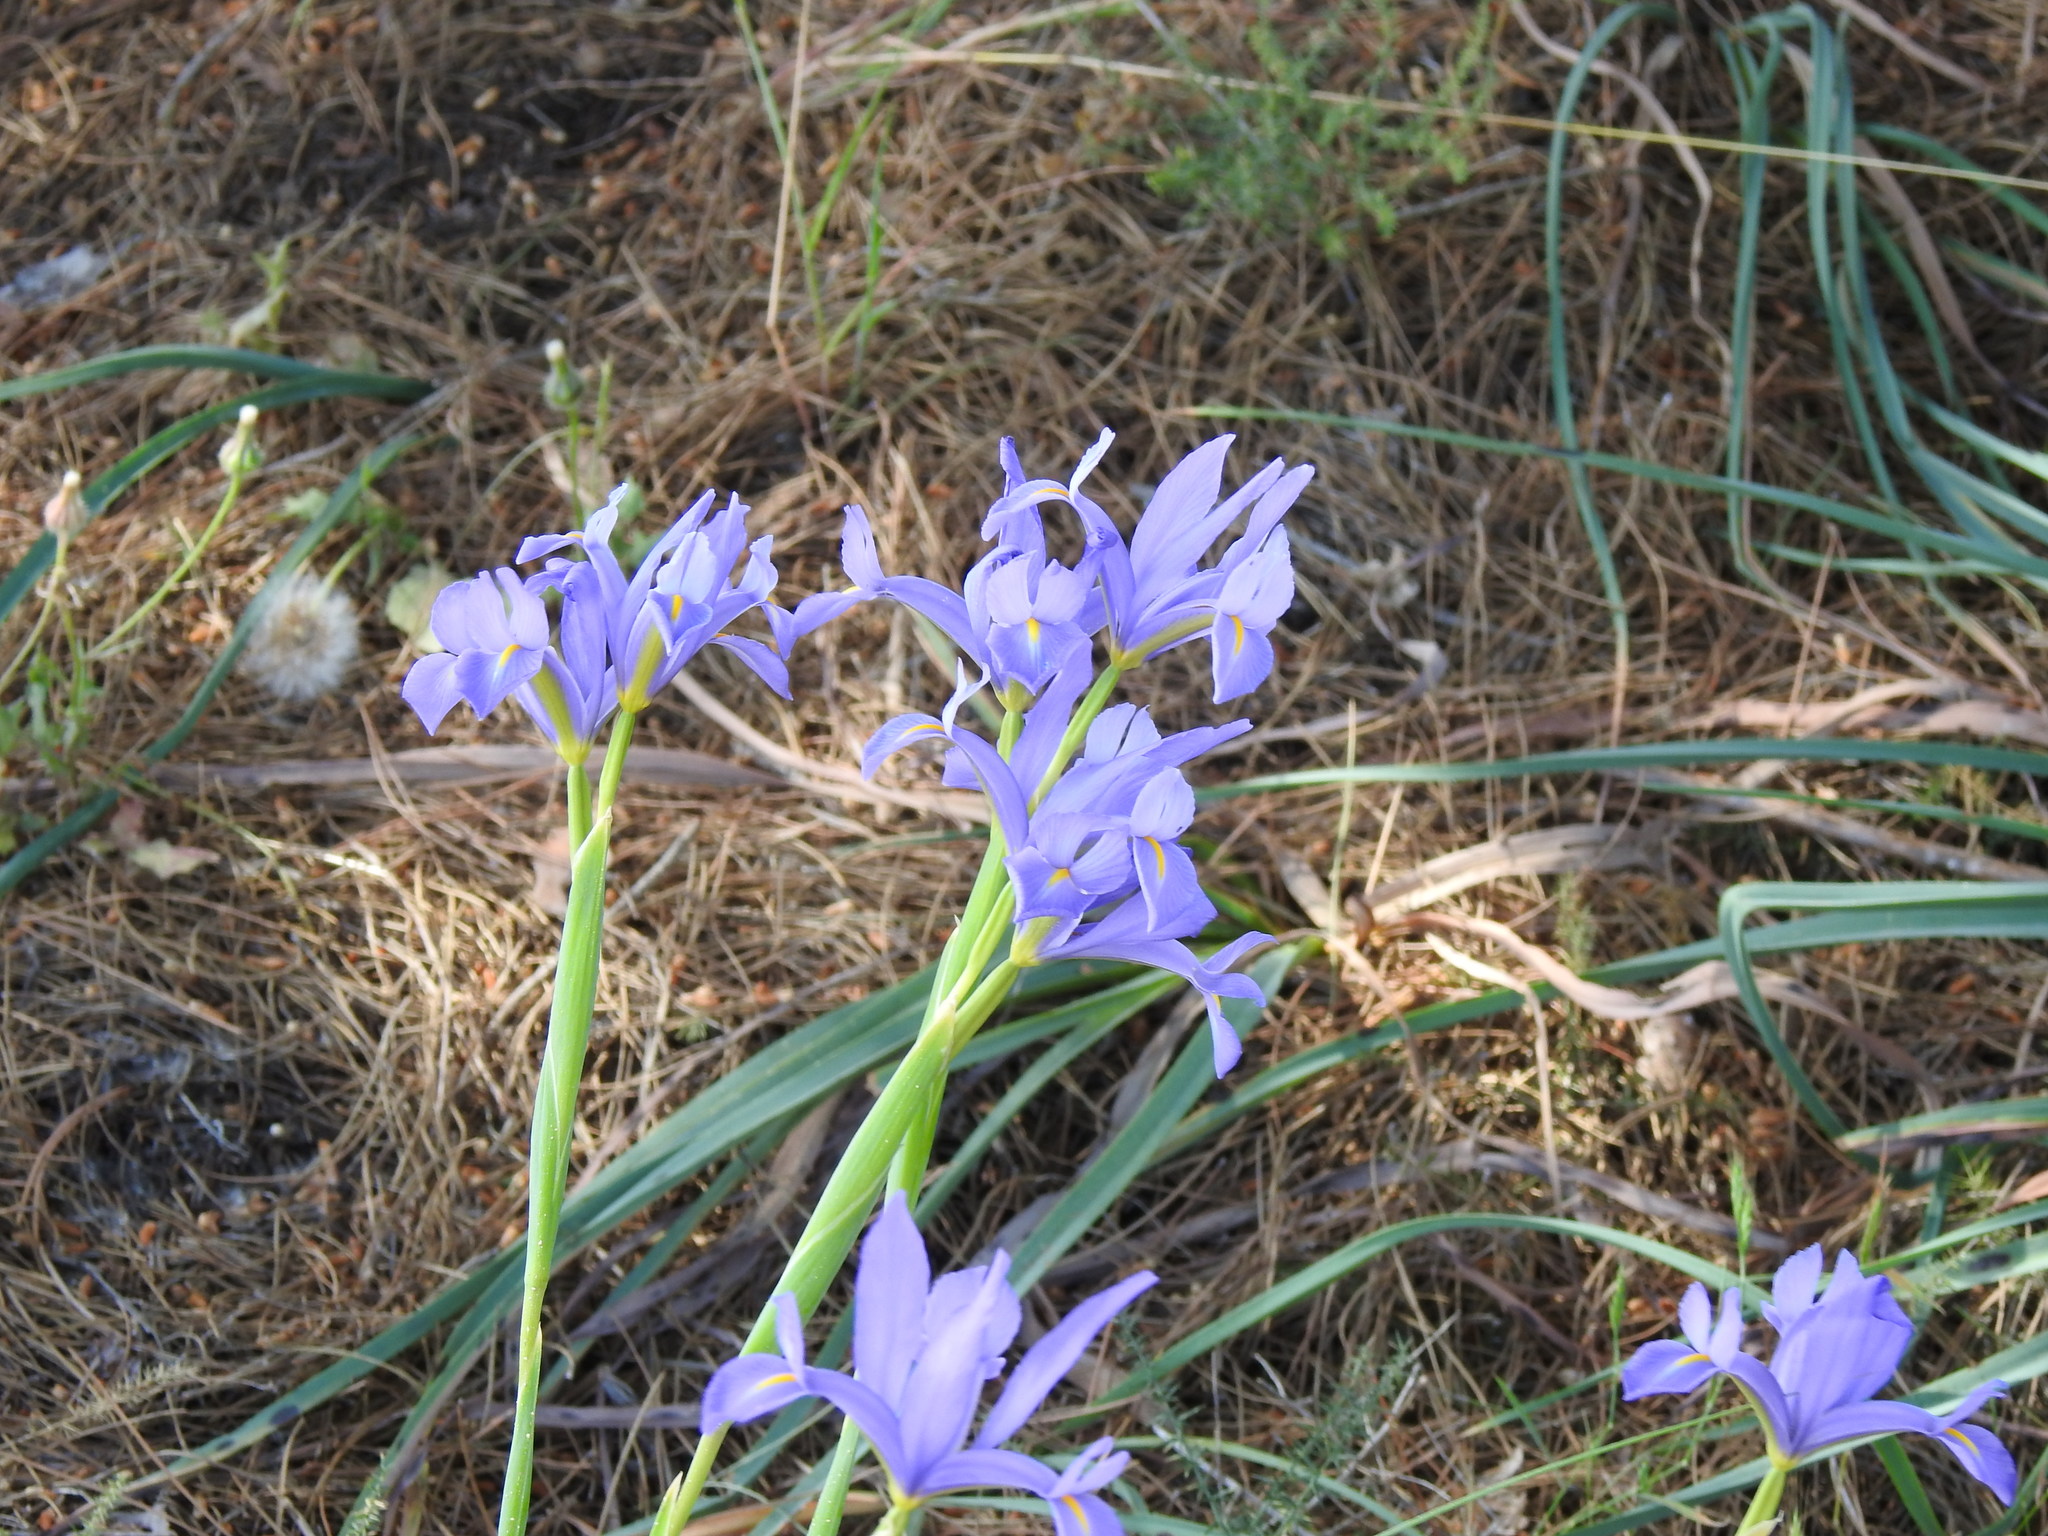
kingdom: Plantae
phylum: Tracheophyta
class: Liliopsida
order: Asparagales
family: Iridaceae
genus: Iris
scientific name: Iris xiphium
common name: Spanish iris
